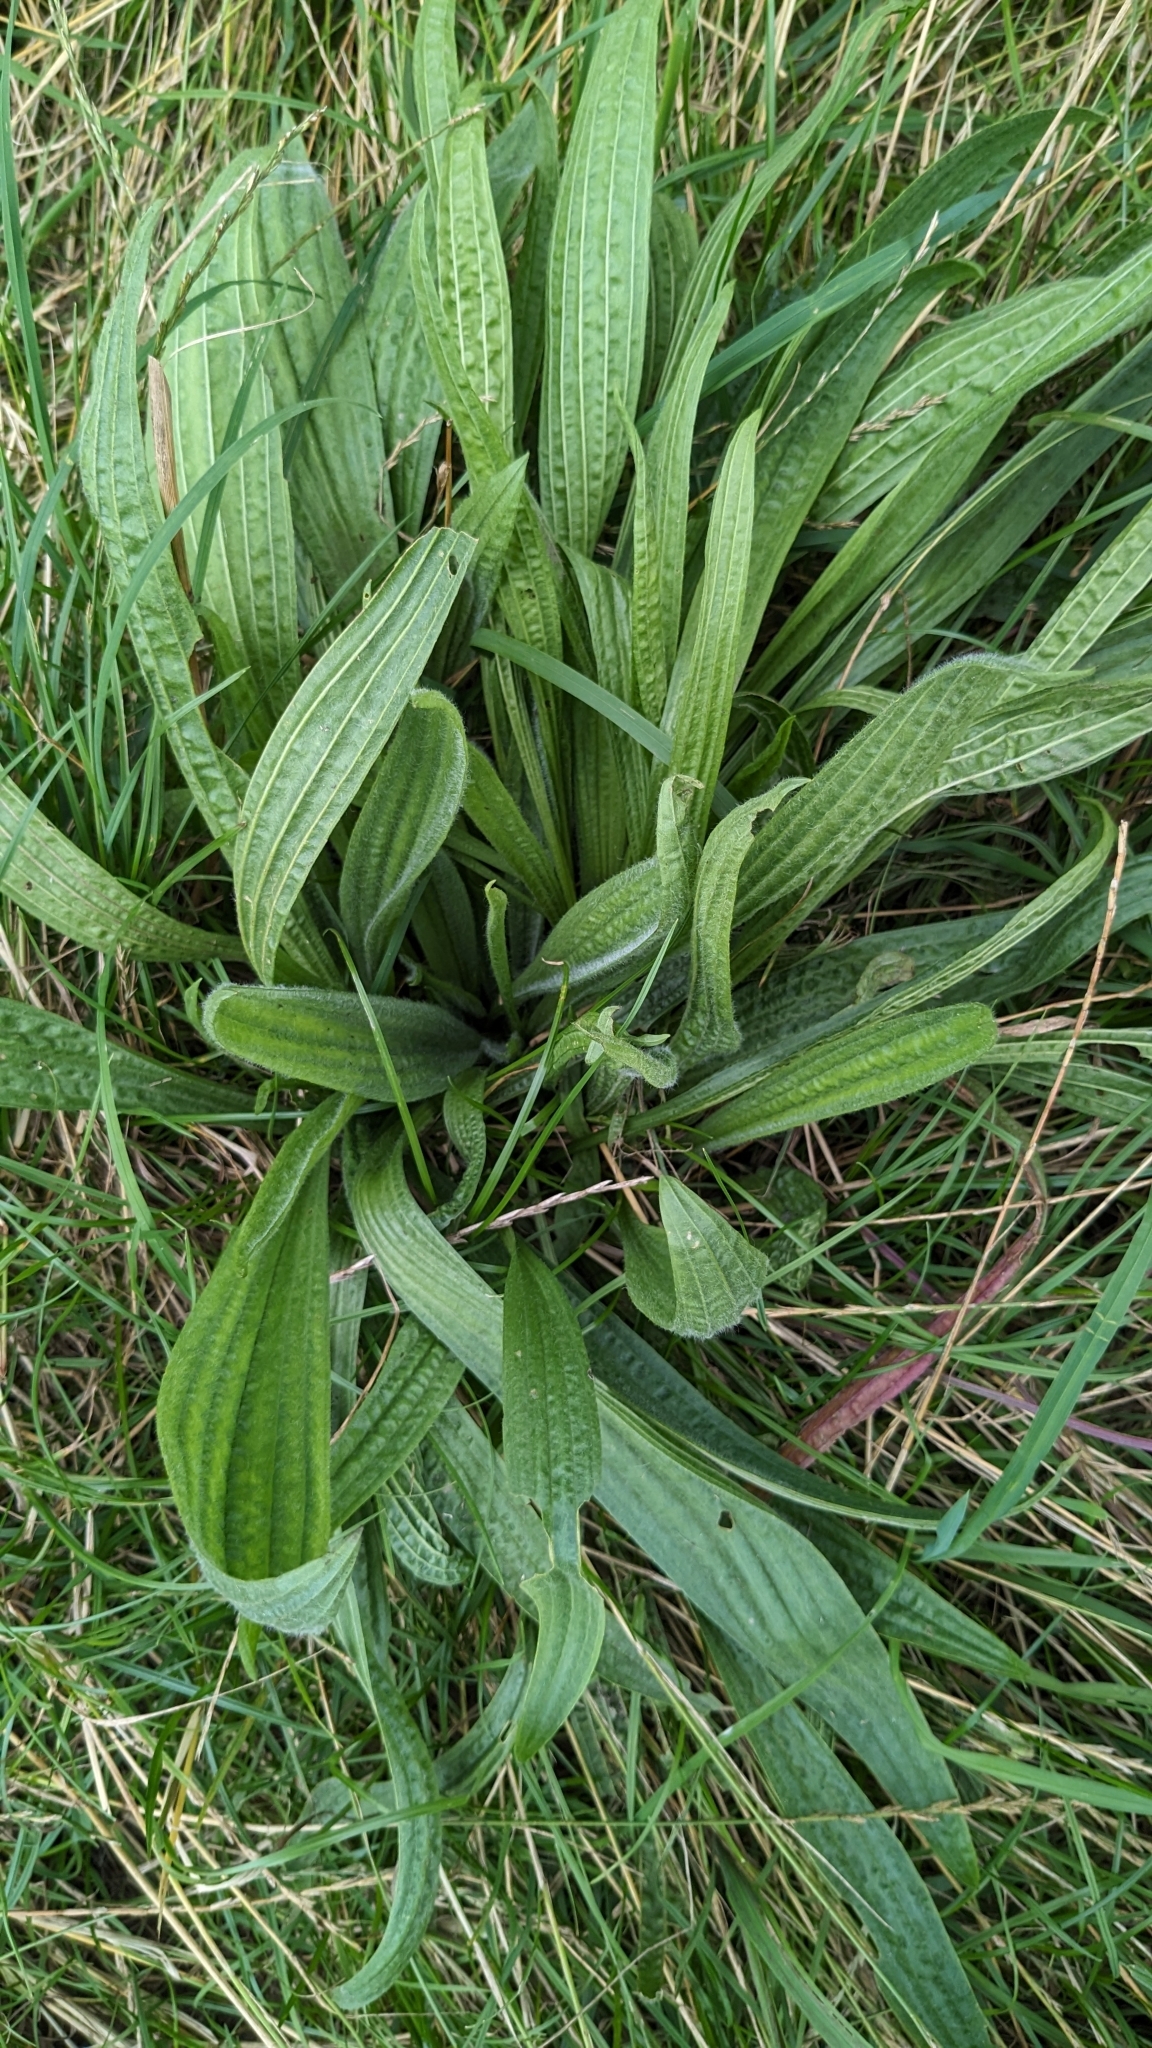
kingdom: Plantae
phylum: Tracheophyta
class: Magnoliopsida
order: Lamiales
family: Plantaginaceae
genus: Plantago
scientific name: Plantago lanceolata
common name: Ribwort plantain
